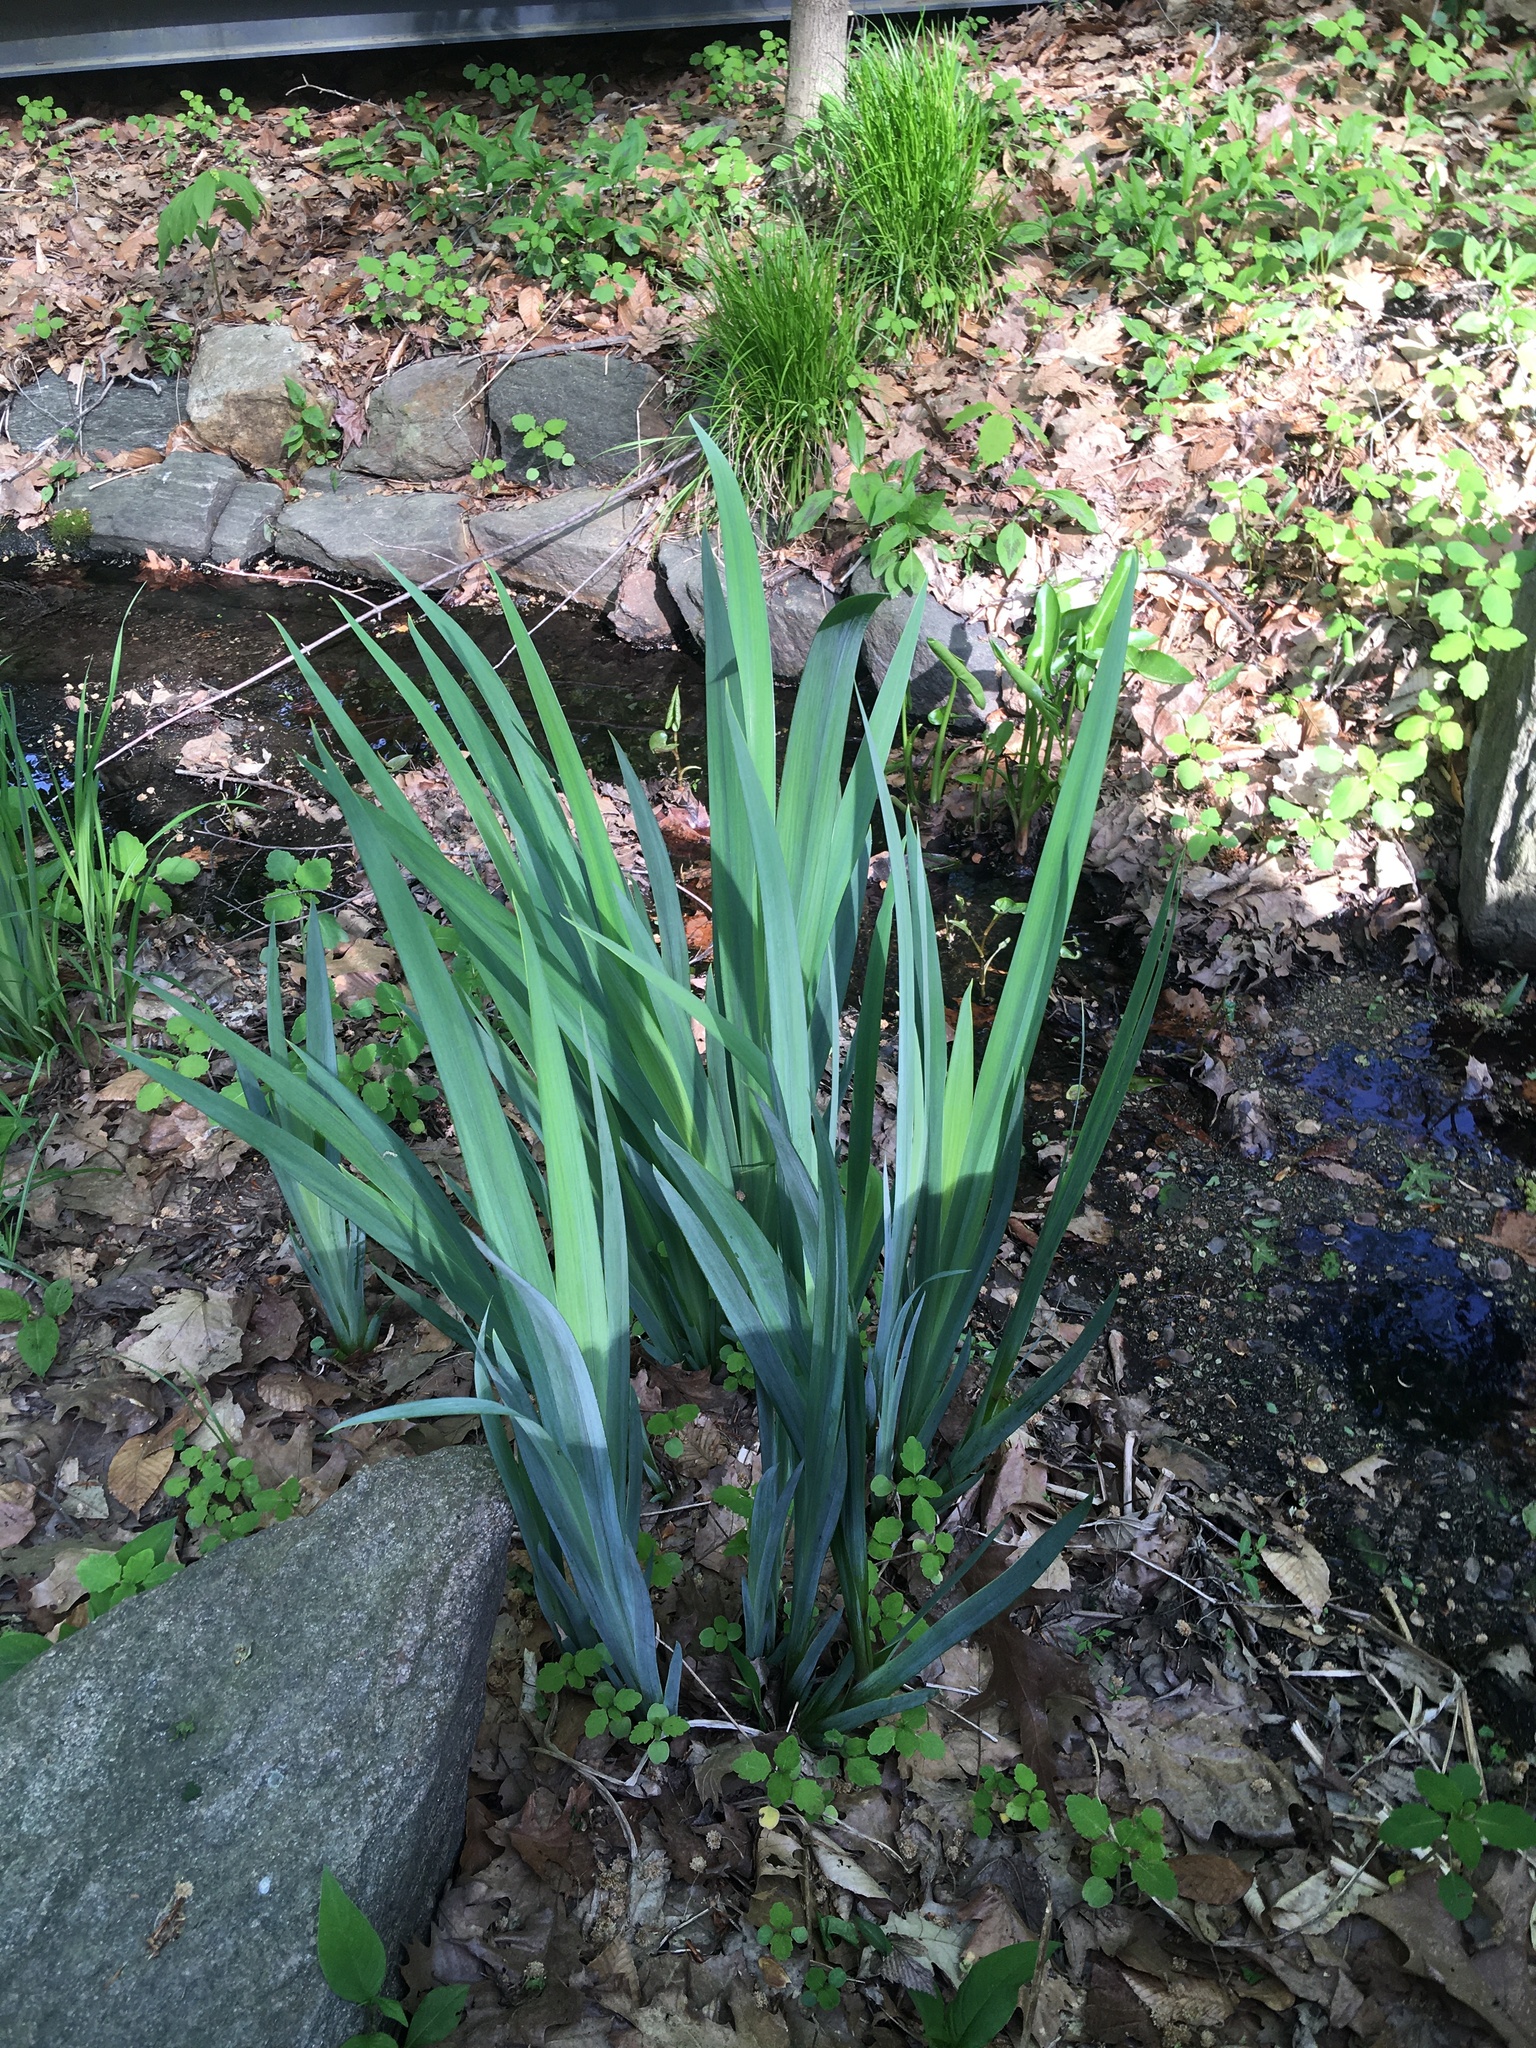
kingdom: Plantae
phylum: Tracheophyta
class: Liliopsida
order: Asparagales
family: Iridaceae
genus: Iris
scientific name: Iris pseudacorus
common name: Yellow flag
